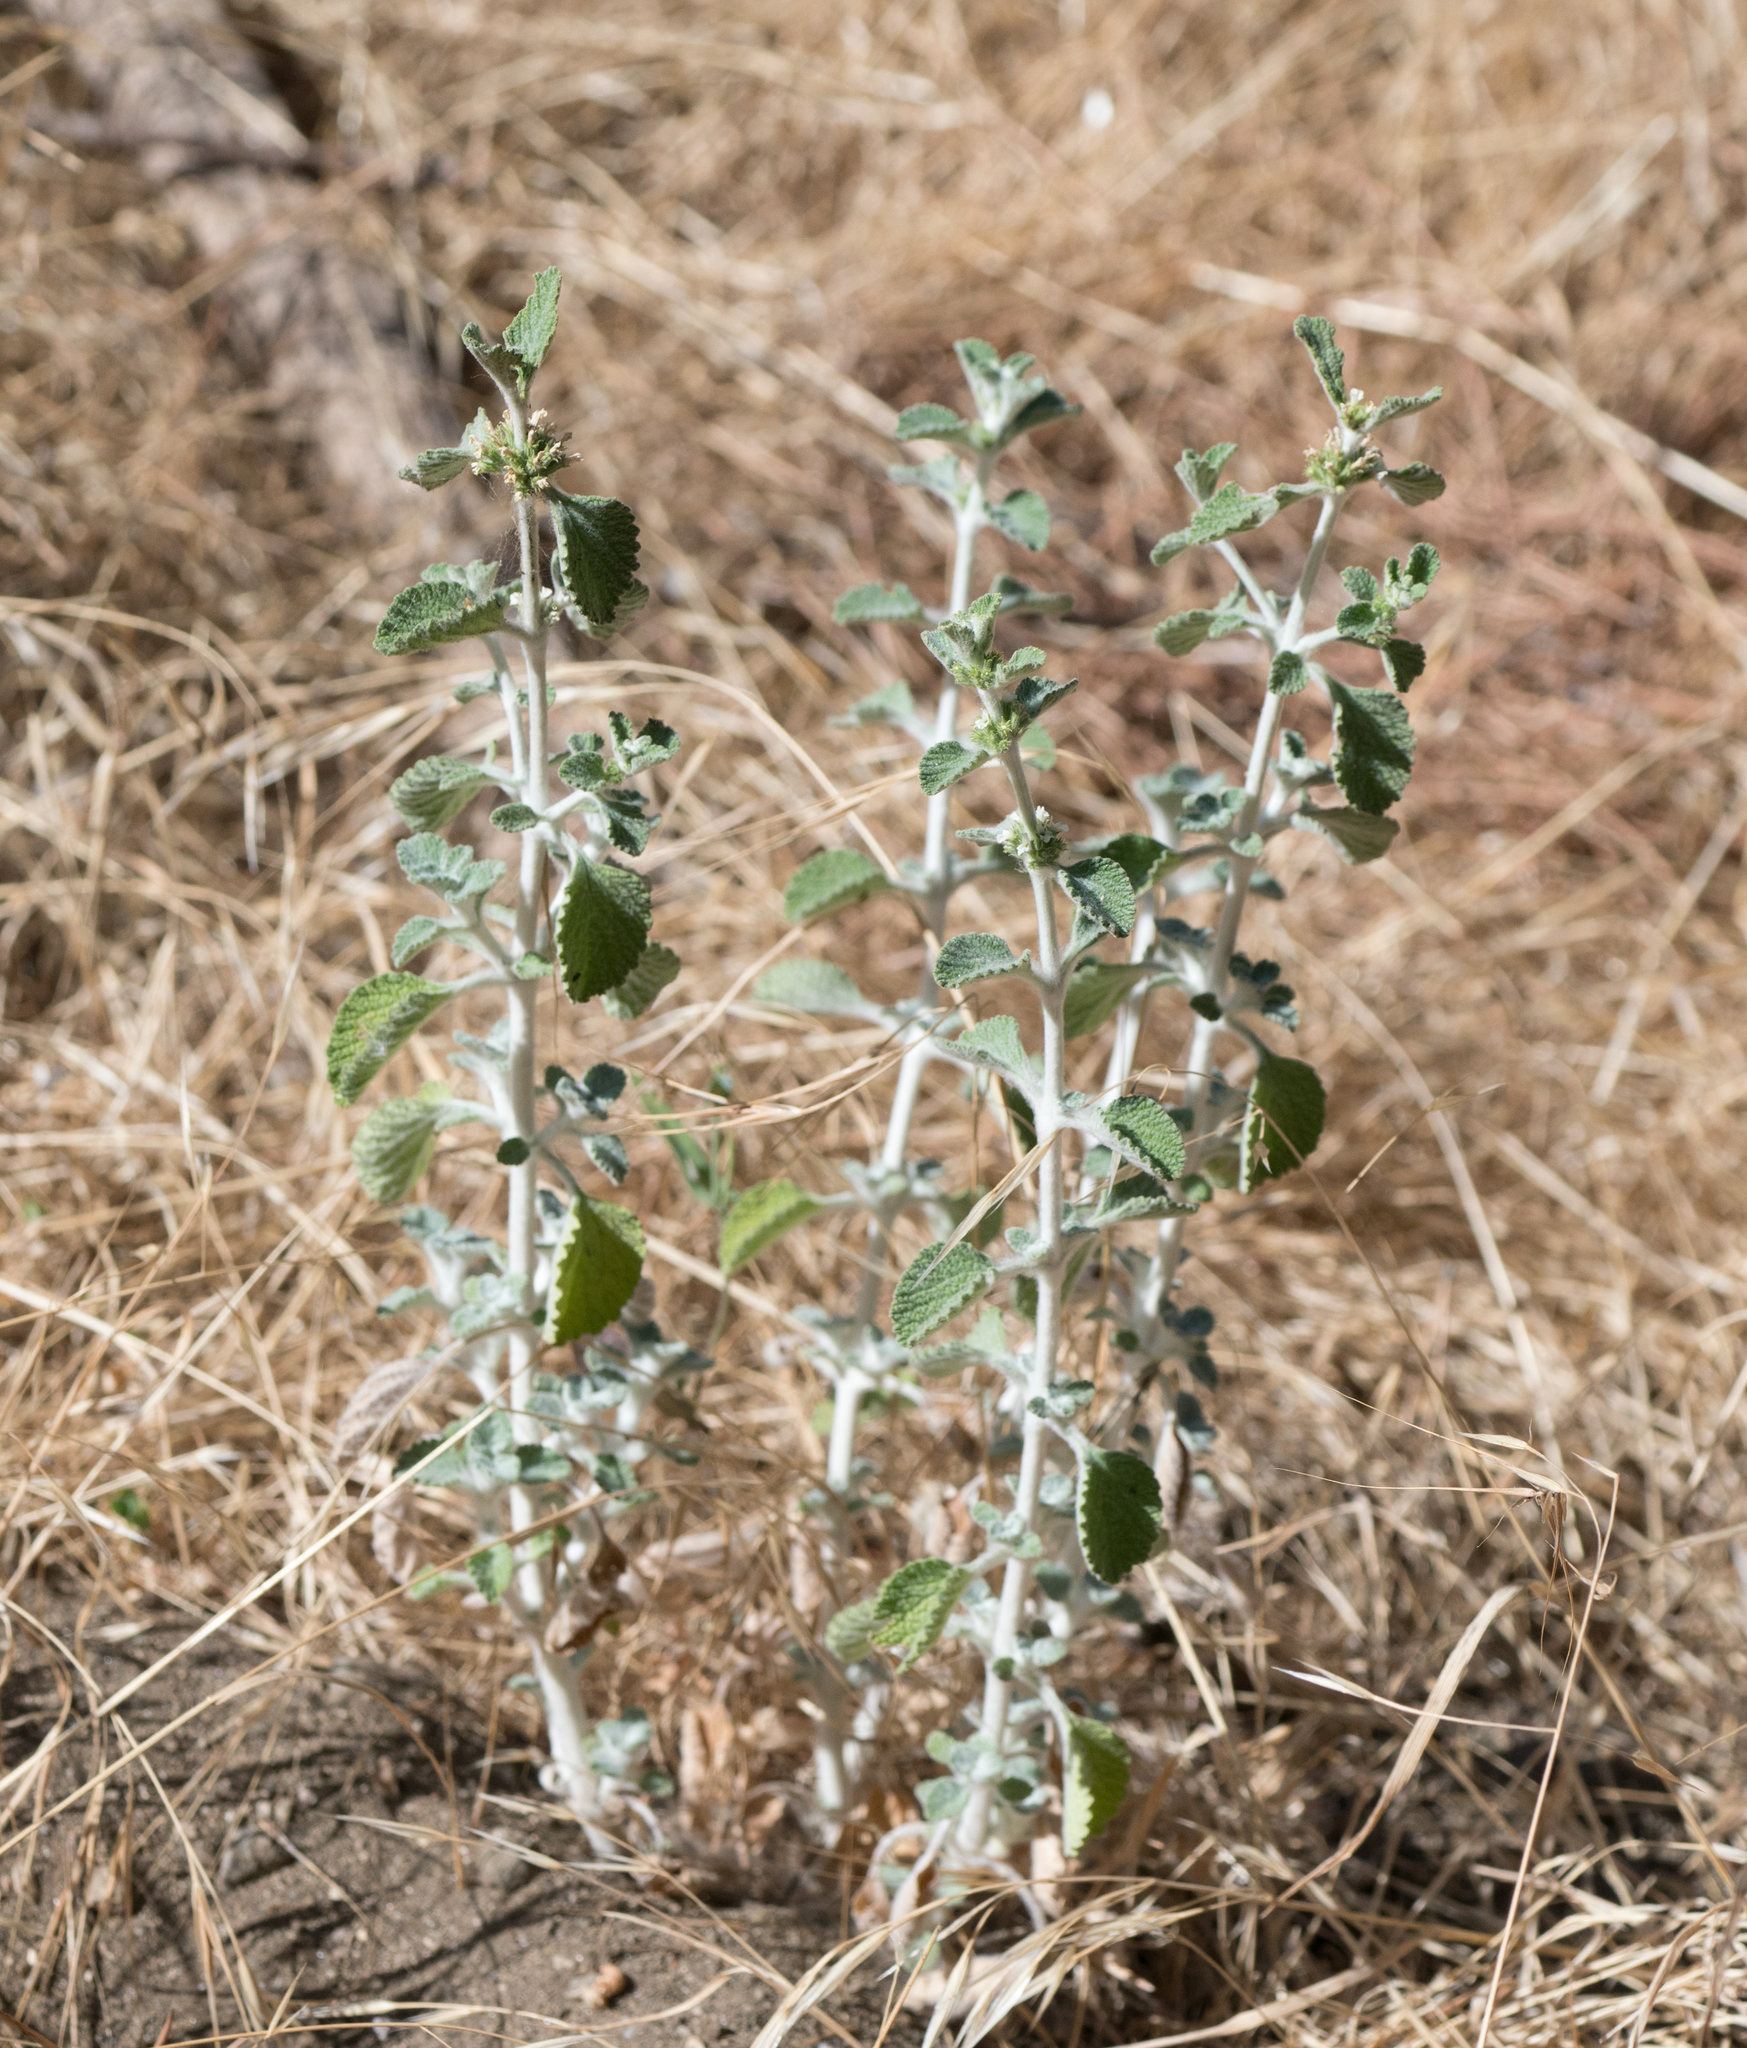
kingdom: Plantae
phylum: Tracheophyta
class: Magnoliopsida
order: Lamiales
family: Lamiaceae
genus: Marrubium
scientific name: Marrubium vulgare
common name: Horehound
